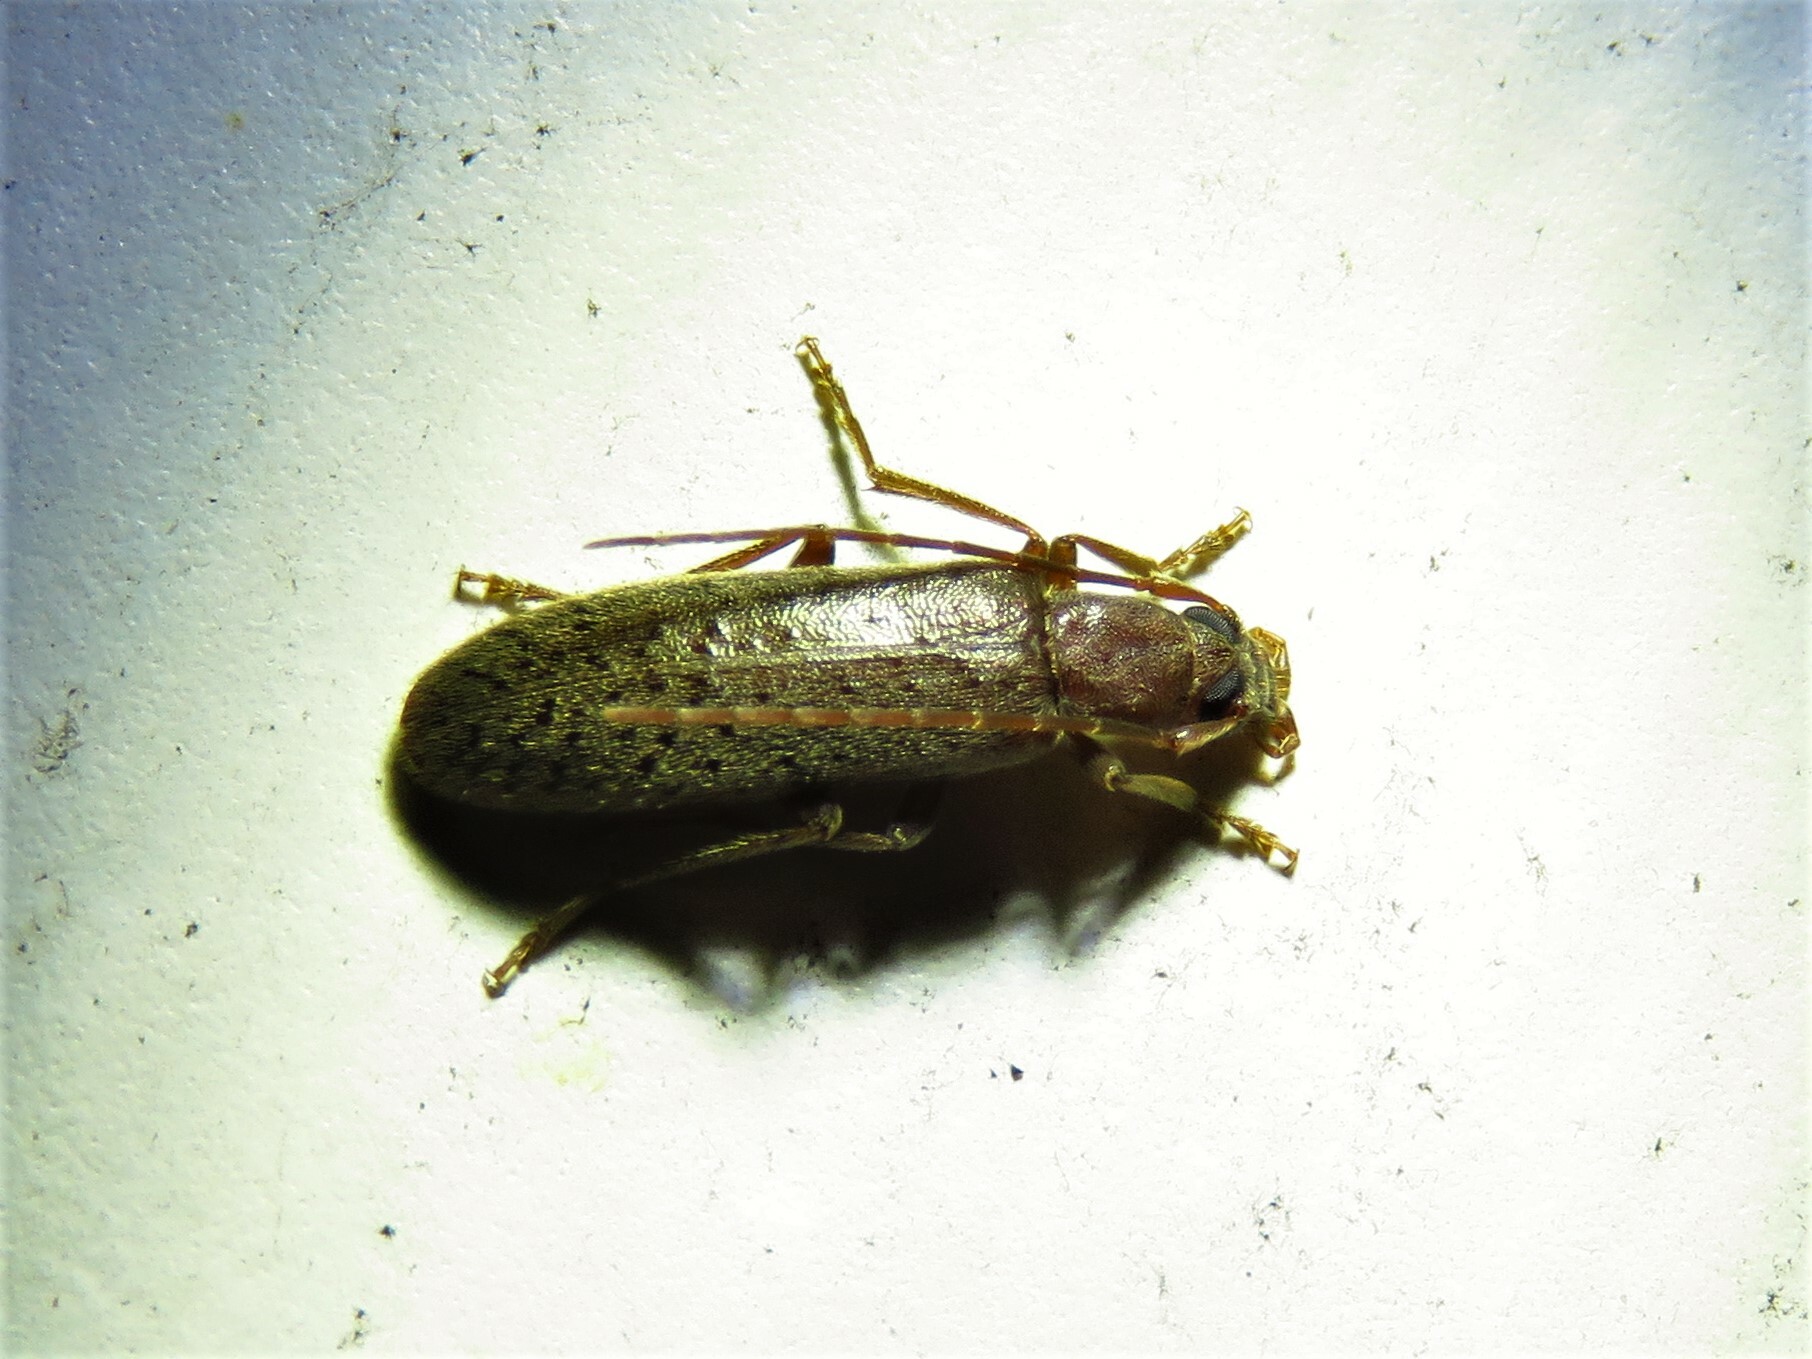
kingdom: Animalia
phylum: Arthropoda
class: Insecta
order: Coleoptera
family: Oedemeridae
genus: Sparedrus
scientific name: Sparedrus aspersus
